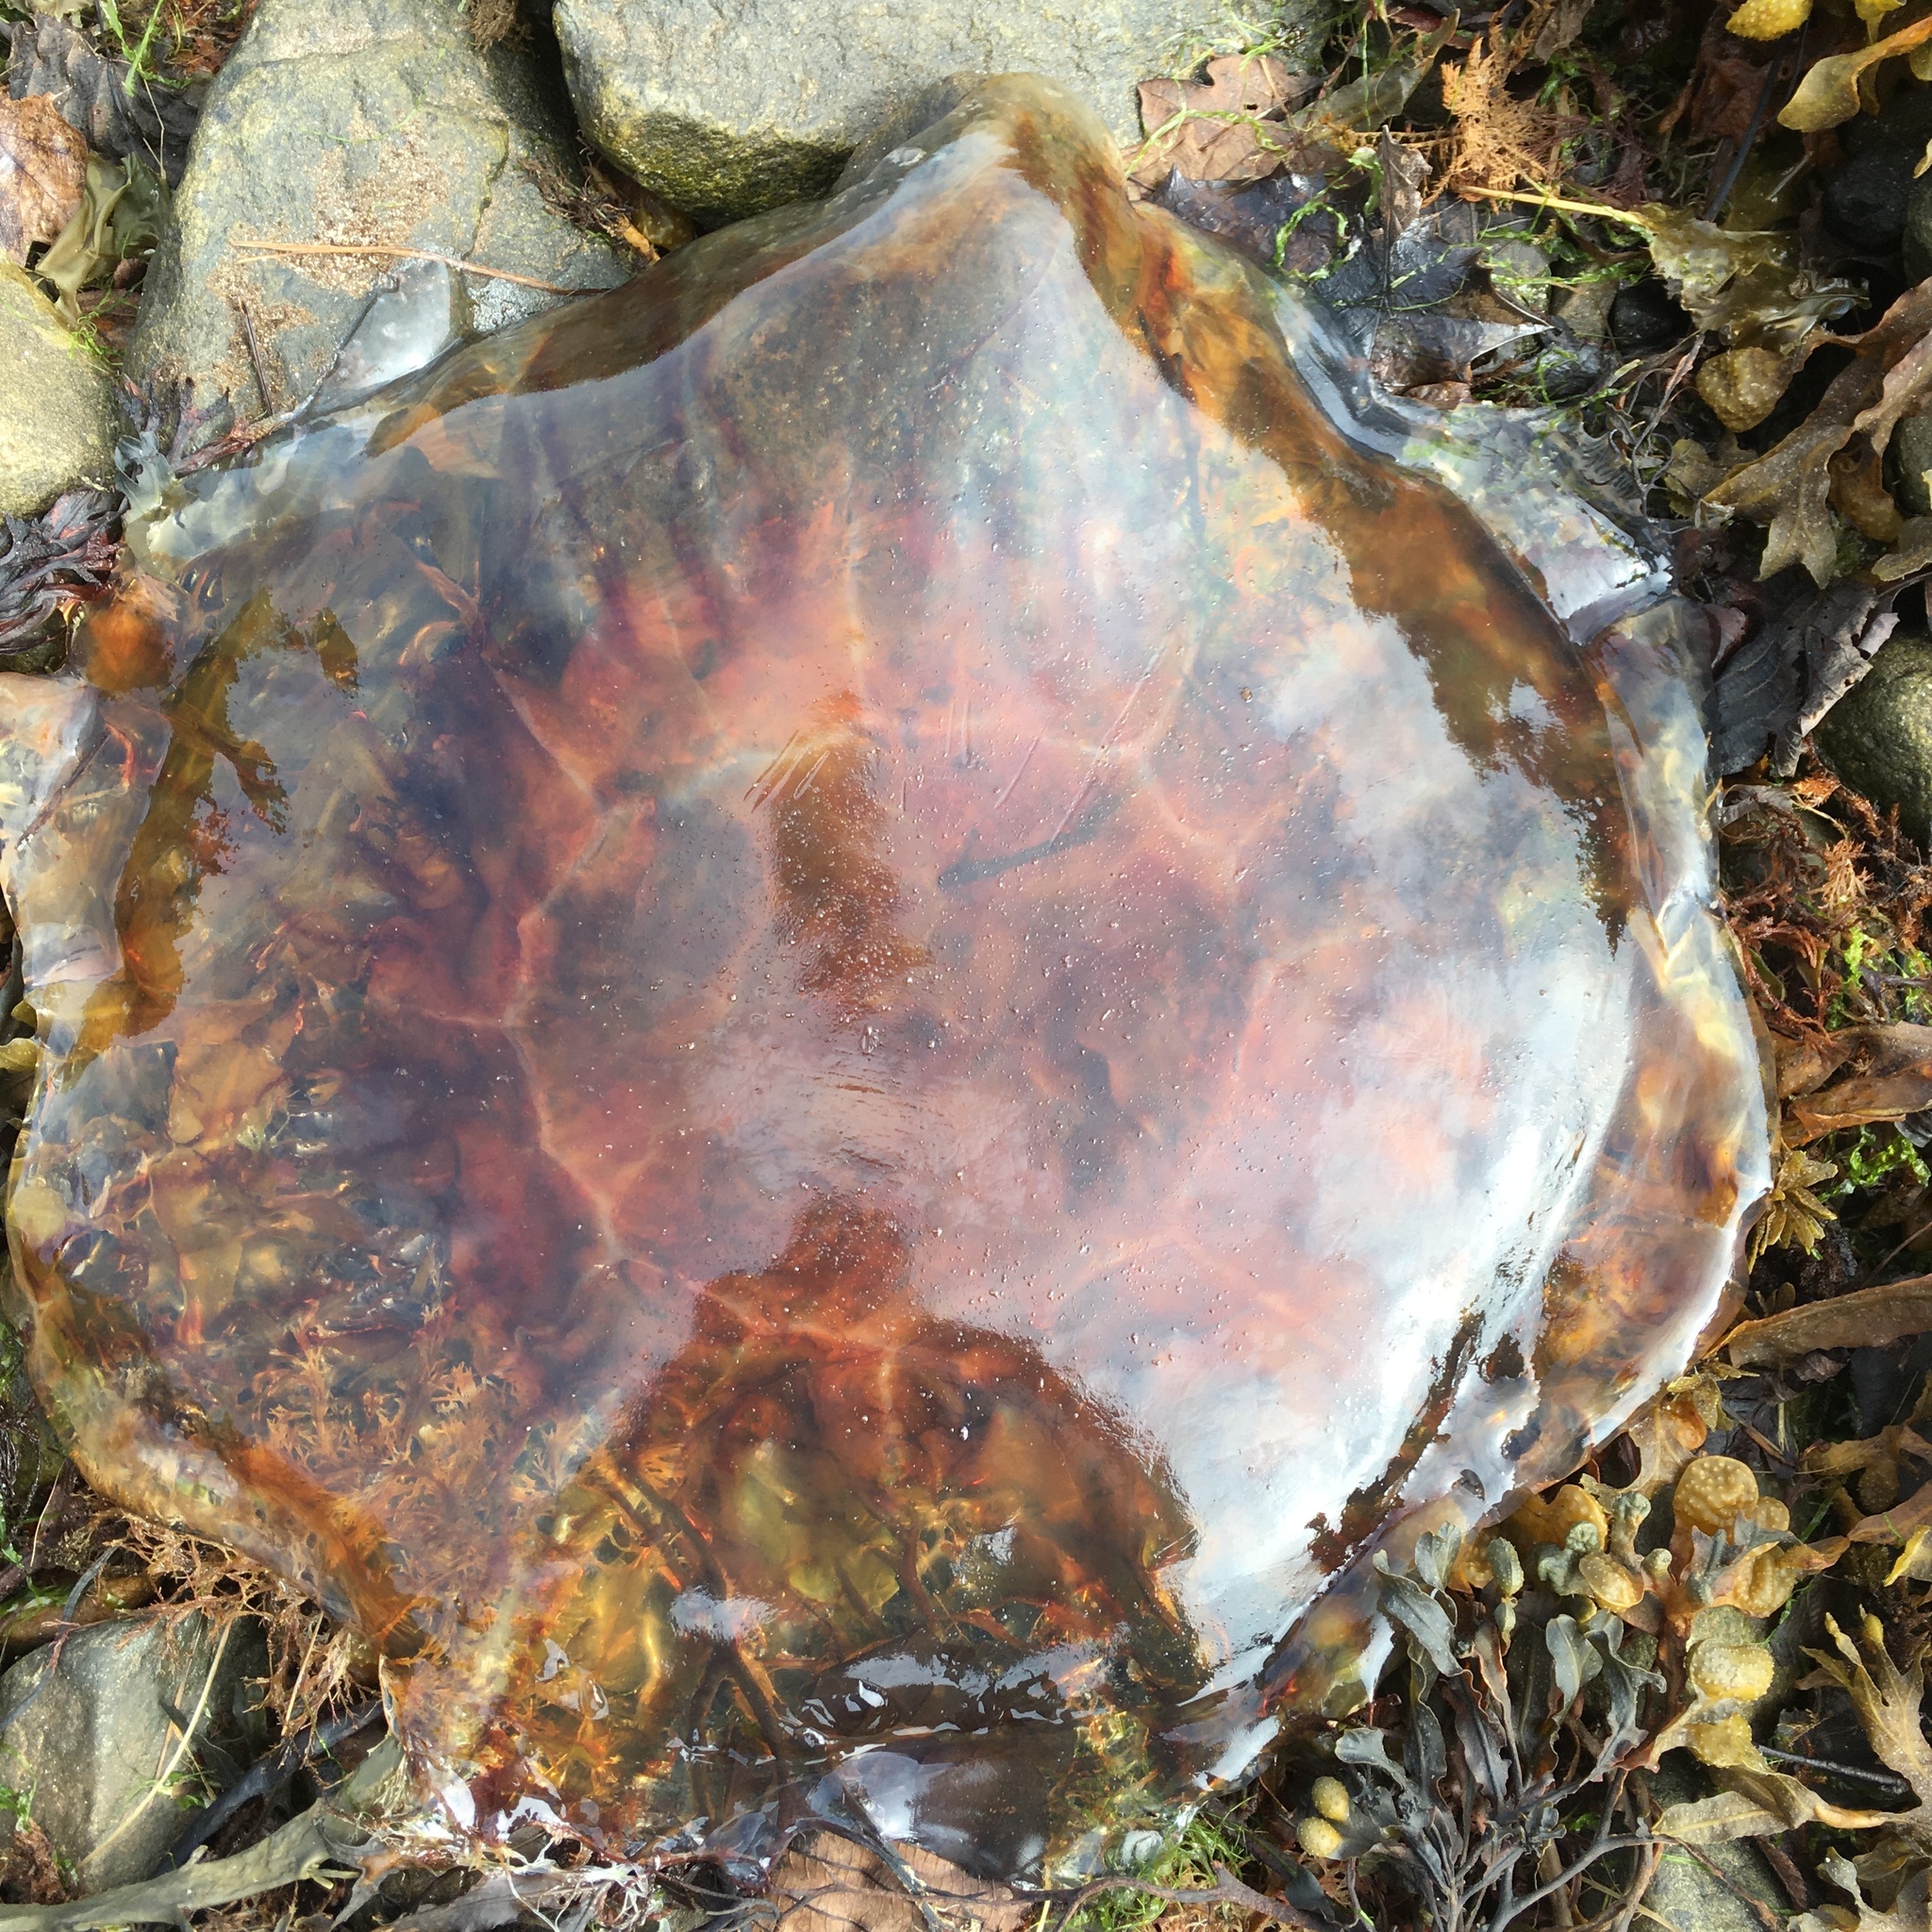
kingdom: Animalia
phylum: Cnidaria
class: Scyphozoa
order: Semaeostomeae
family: Cyaneidae
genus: Cyanea
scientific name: Cyanea capillata
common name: Lion's mane jellyfish
